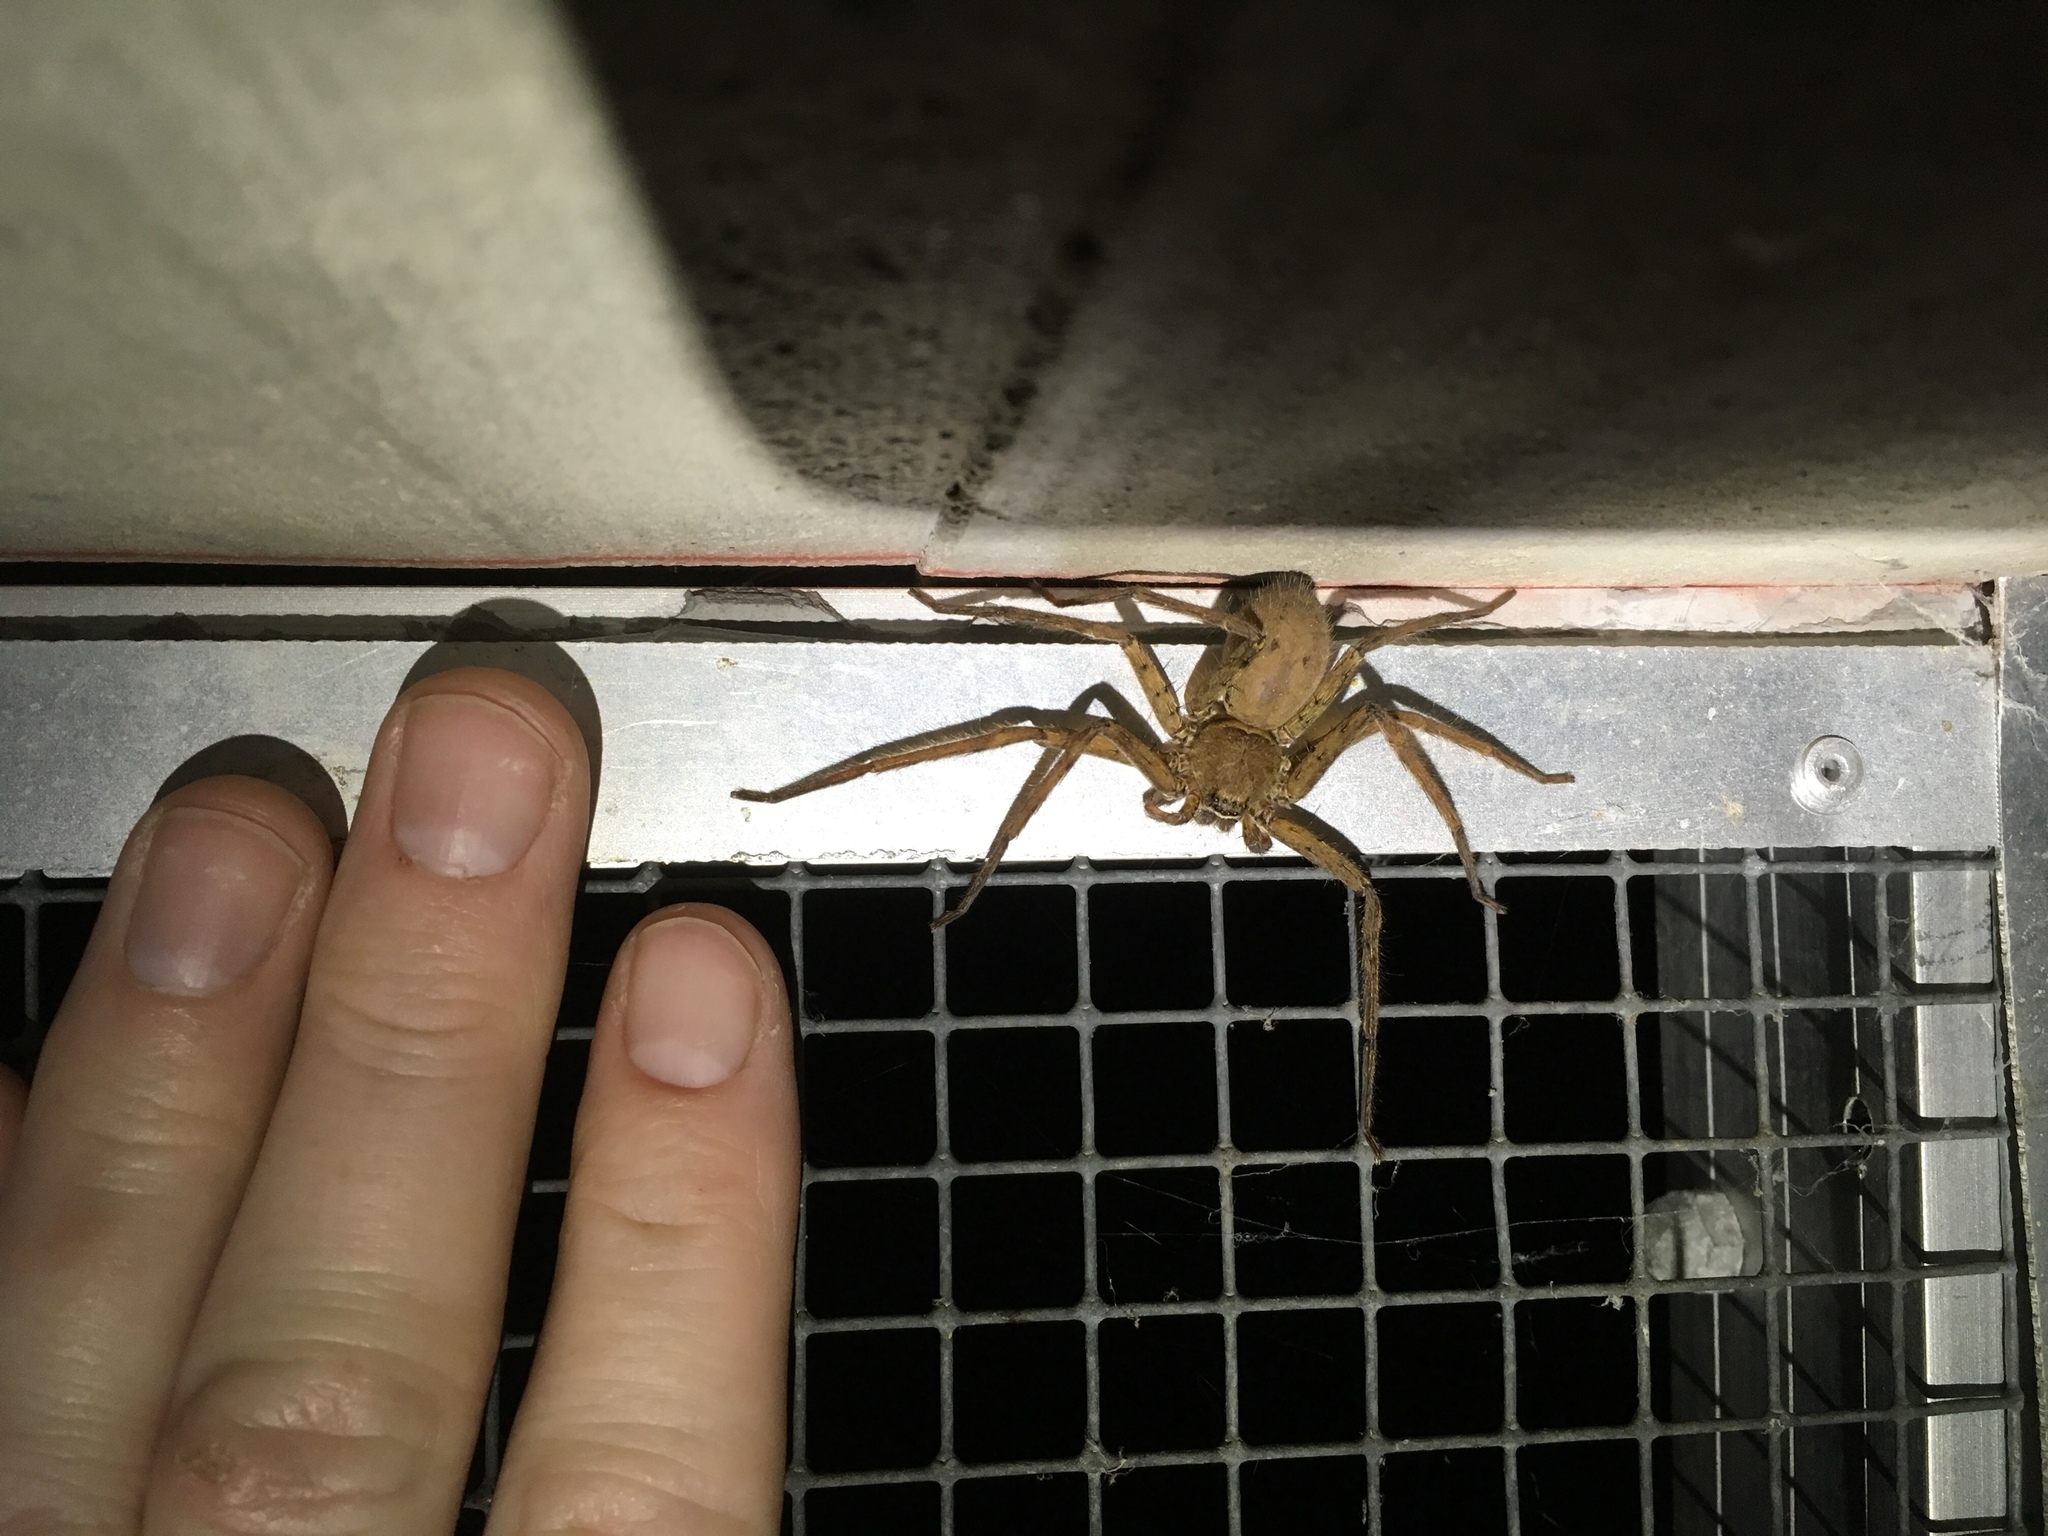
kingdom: Animalia
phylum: Arthropoda
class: Arachnida
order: Araneae
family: Sparassidae
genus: Heteropoda
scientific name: Heteropoda venatoria
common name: Huntsman spider
